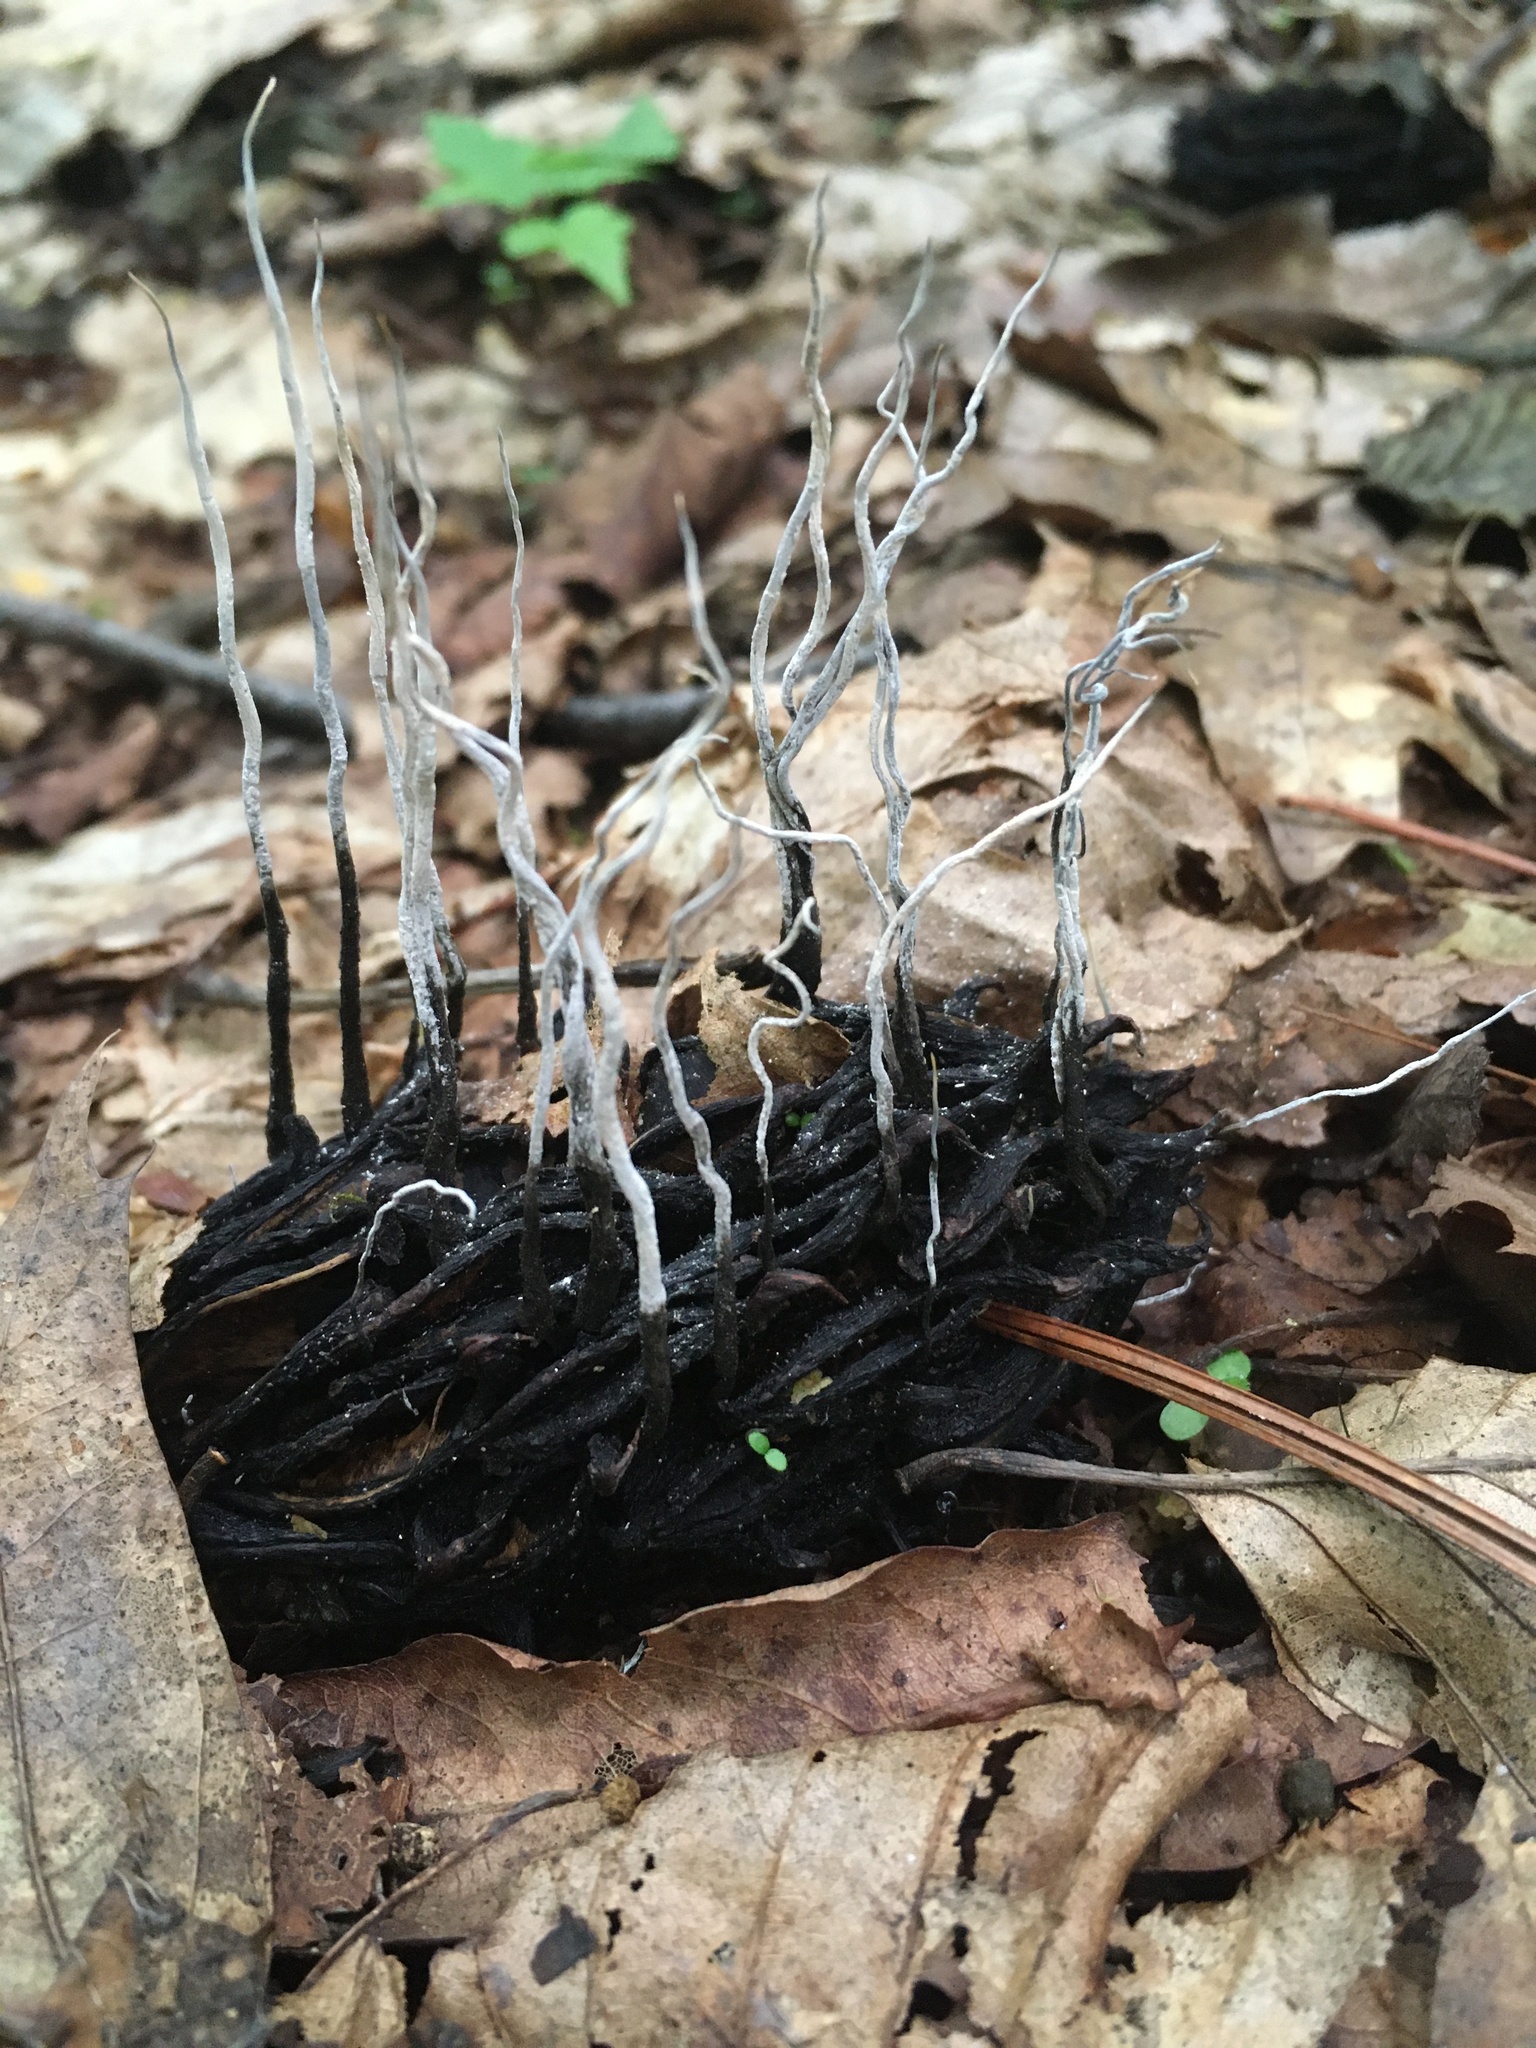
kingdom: Fungi
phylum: Ascomycota
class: Sordariomycetes
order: Xylariales
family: Xylariaceae
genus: Xylaria
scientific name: Xylaria magnoliae
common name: Magnolia-cone xylaria
